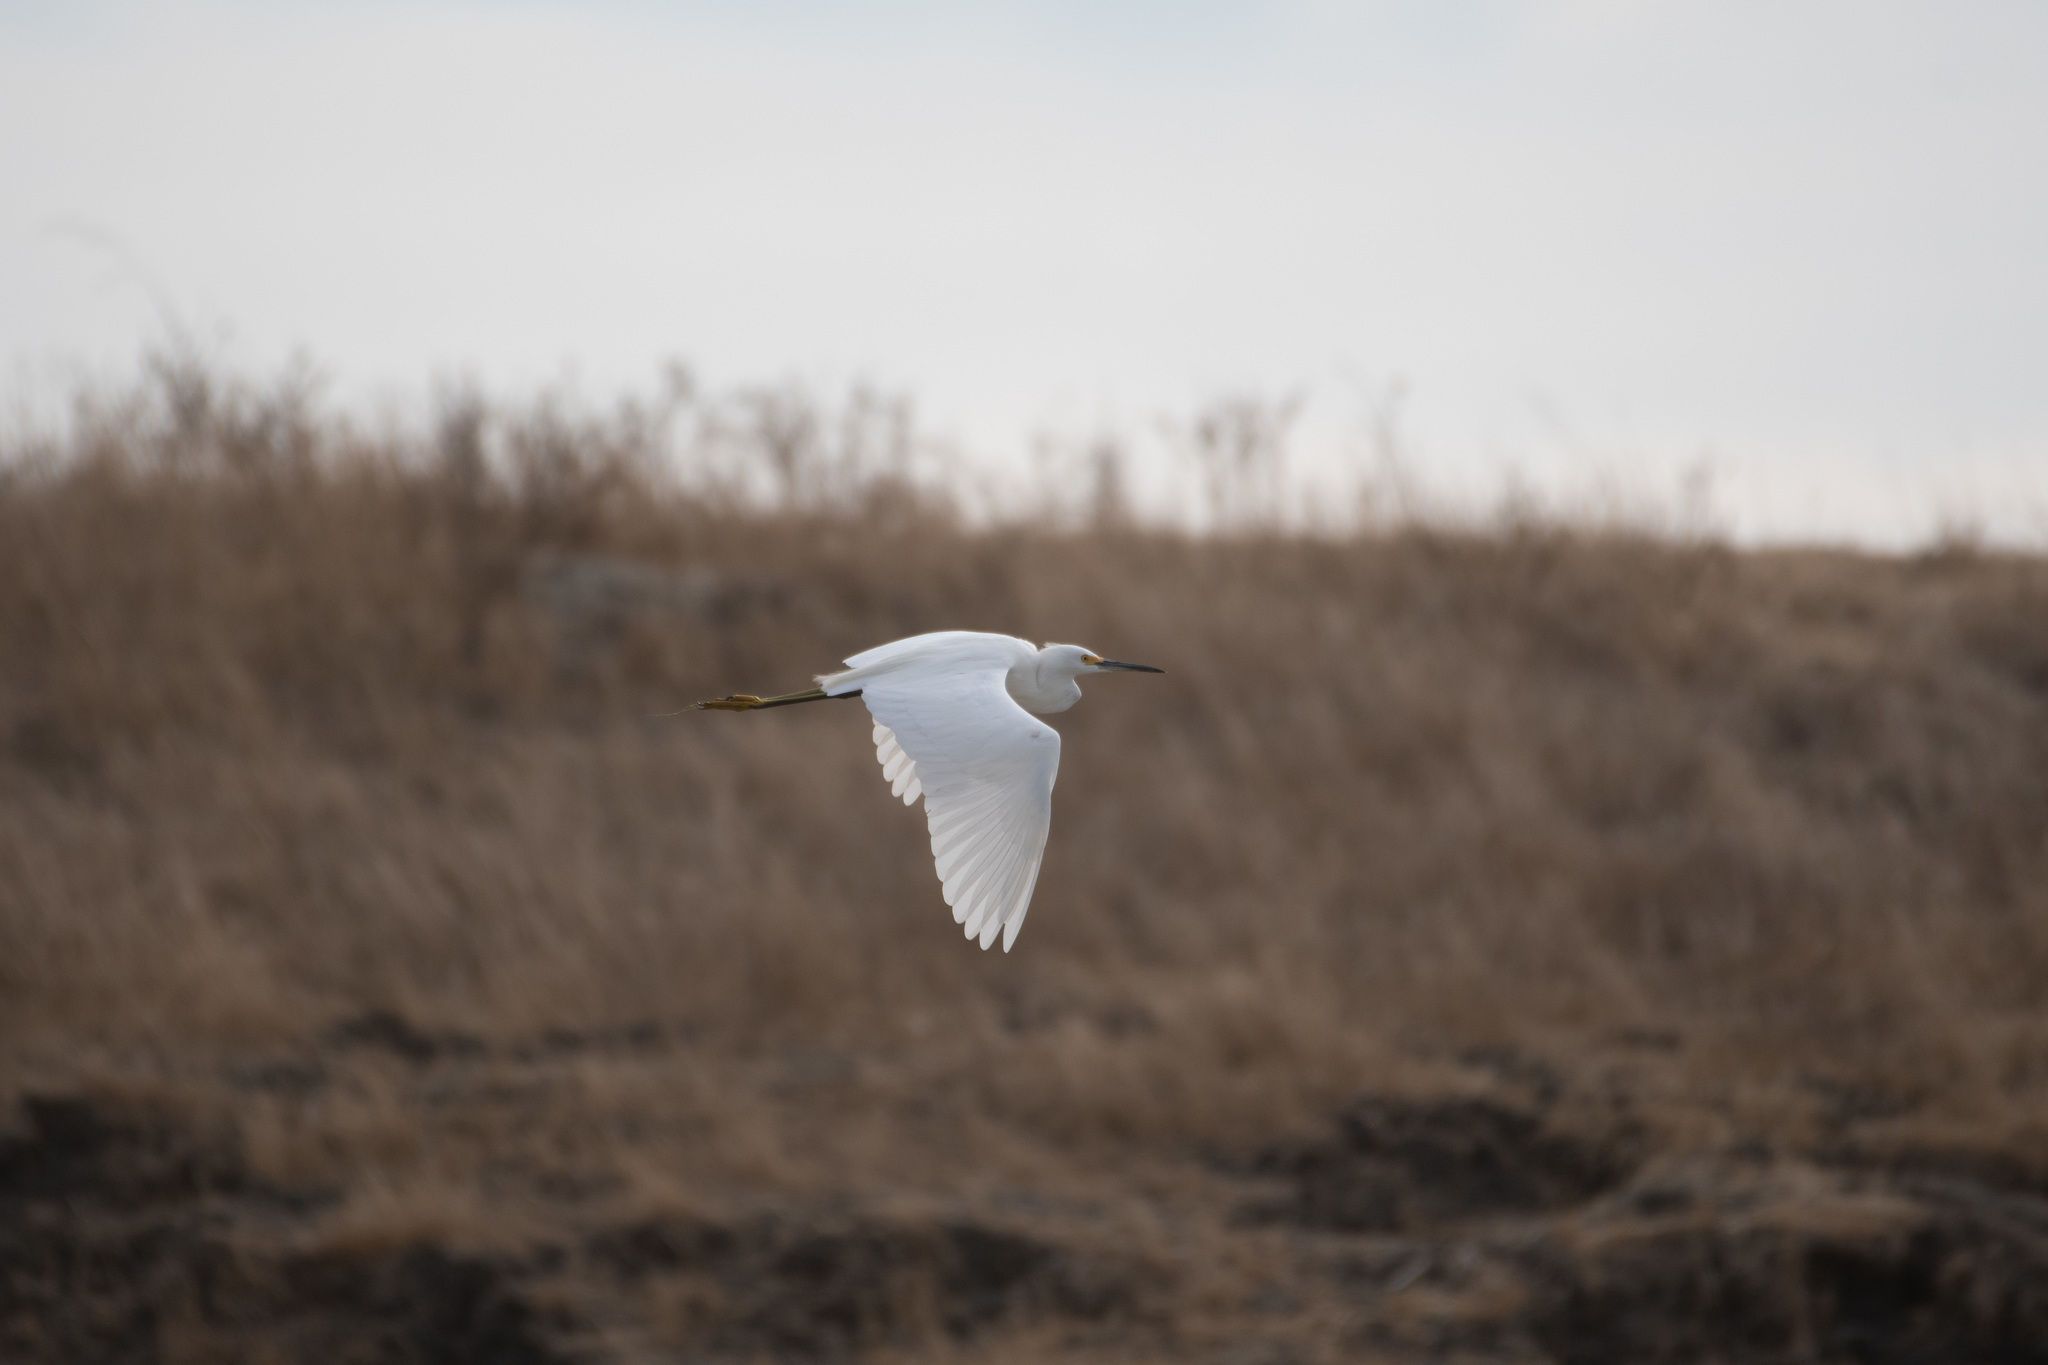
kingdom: Animalia
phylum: Chordata
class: Aves
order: Pelecaniformes
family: Ardeidae
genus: Egretta
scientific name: Egretta thula
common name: Snowy egret
